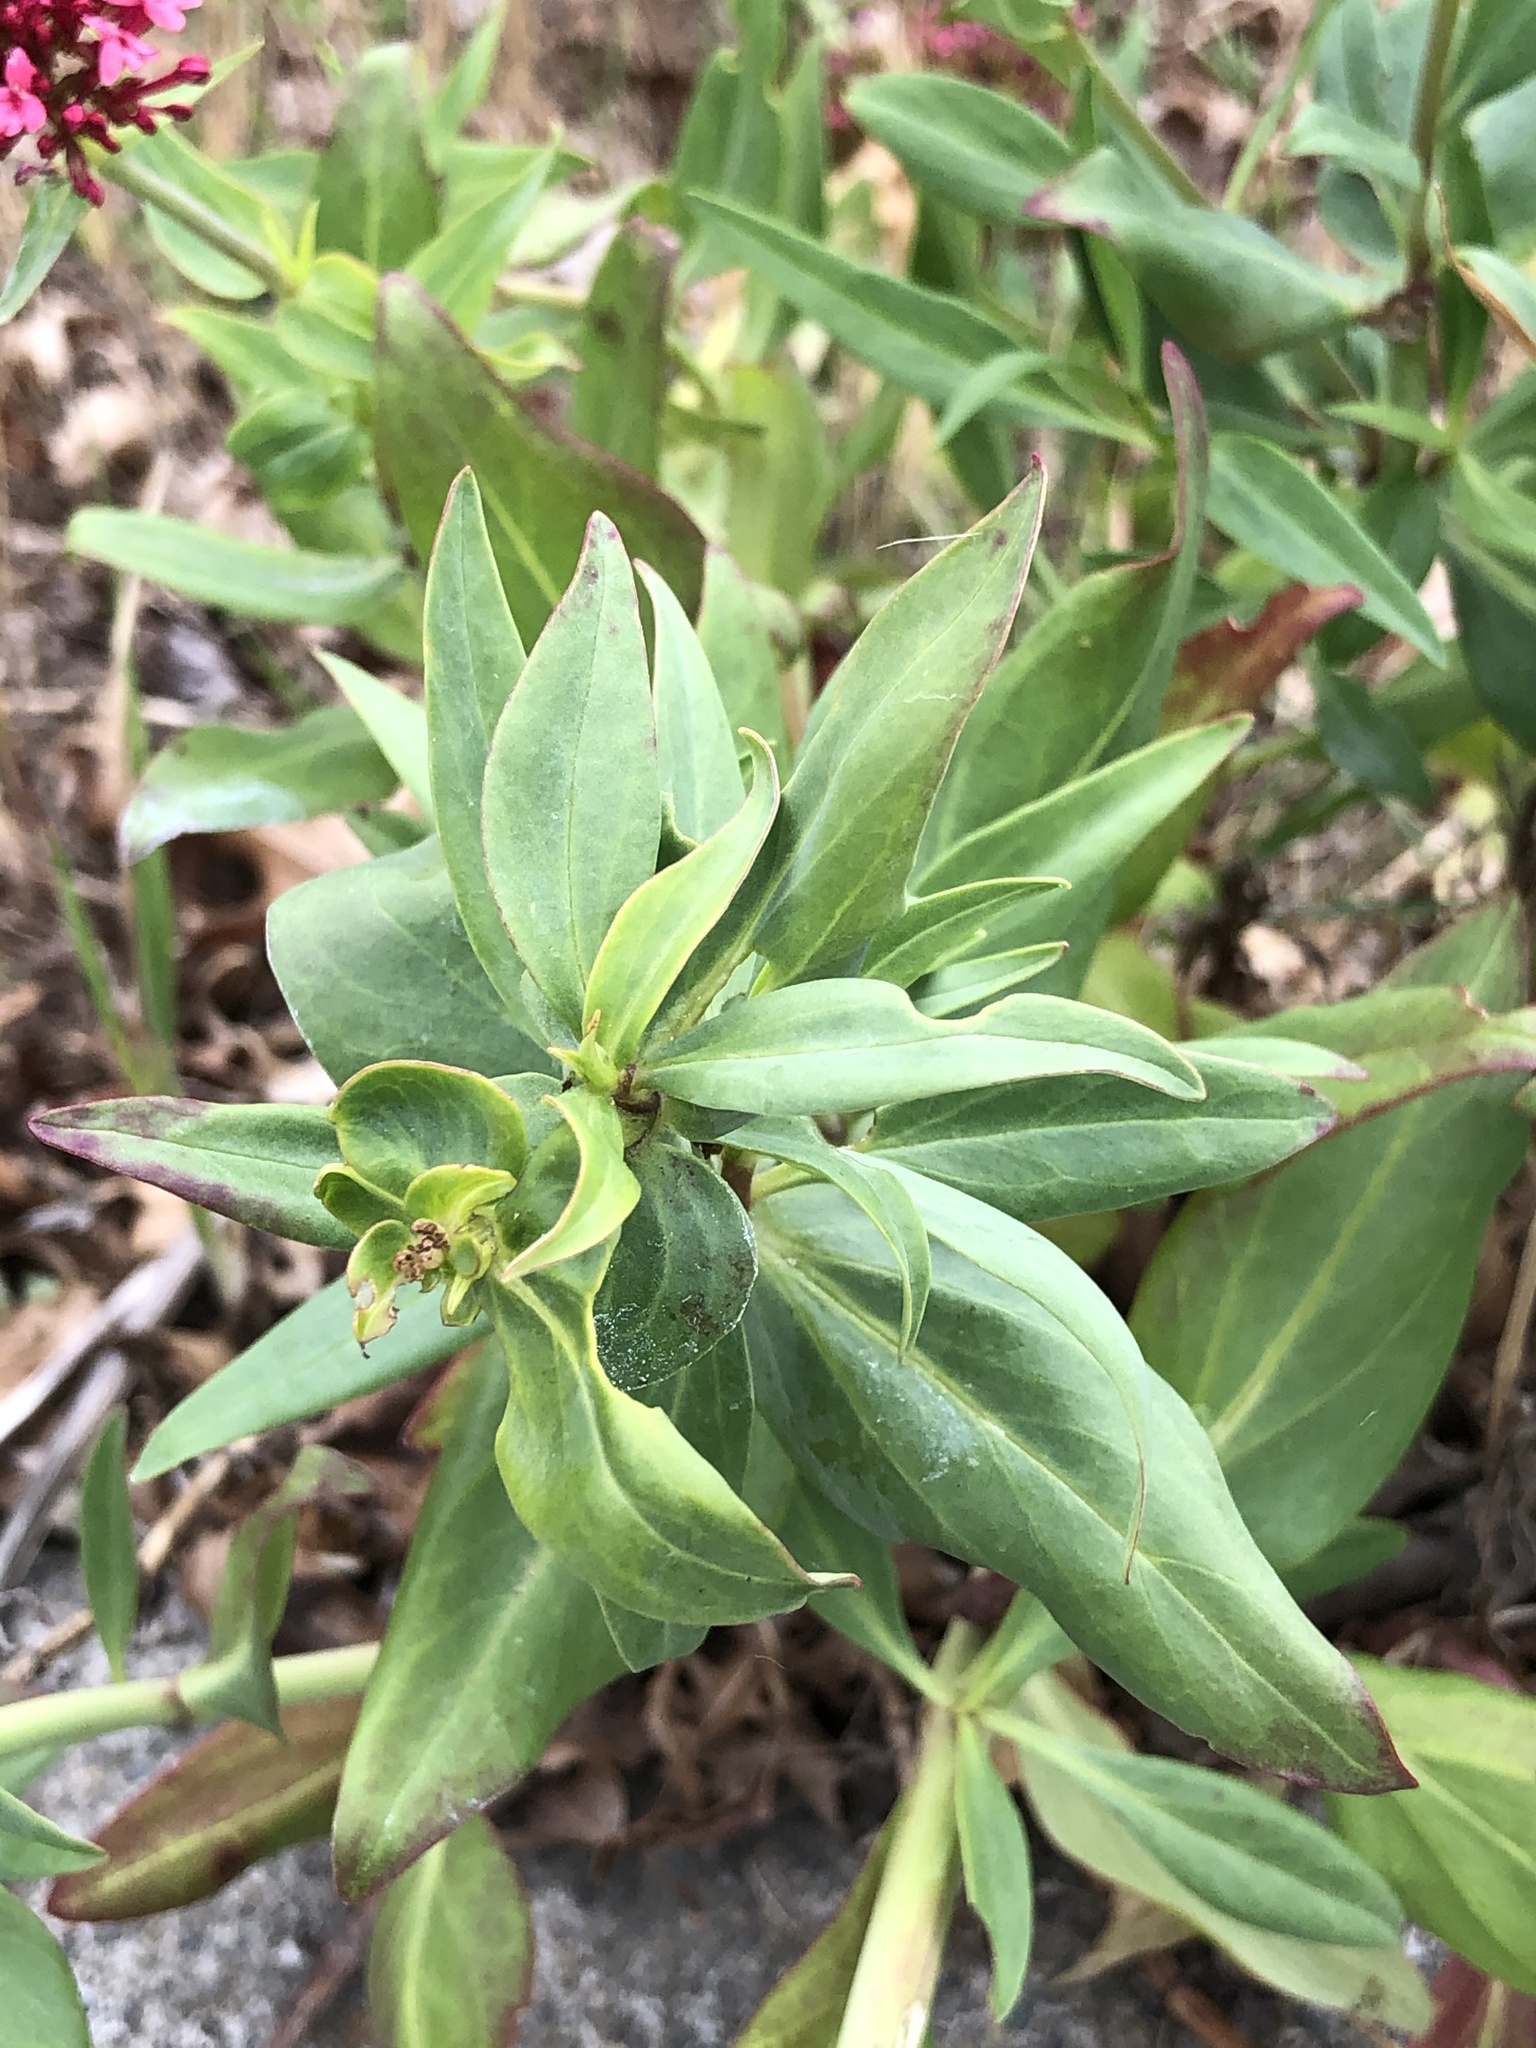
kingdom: Plantae
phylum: Tracheophyta
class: Magnoliopsida
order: Dipsacales
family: Caprifoliaceae
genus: Centranthus
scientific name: Centranthus ruber
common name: Red valerian
